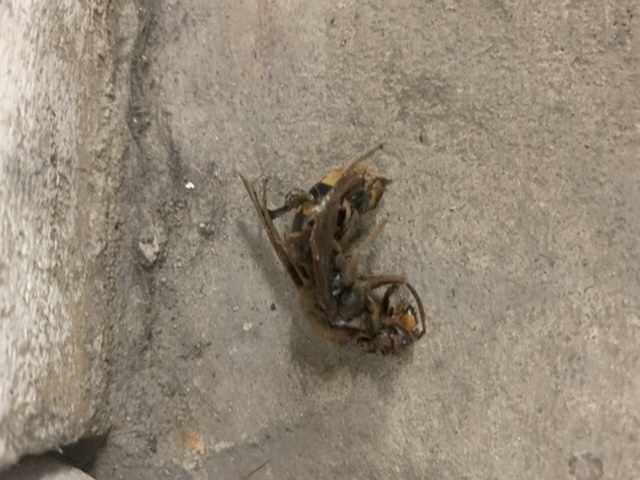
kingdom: Animalia
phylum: Arthropoda
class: Insecta
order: Hymenoptera
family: Vespidae
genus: Vespa
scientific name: Vespa crabro
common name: Hornet
